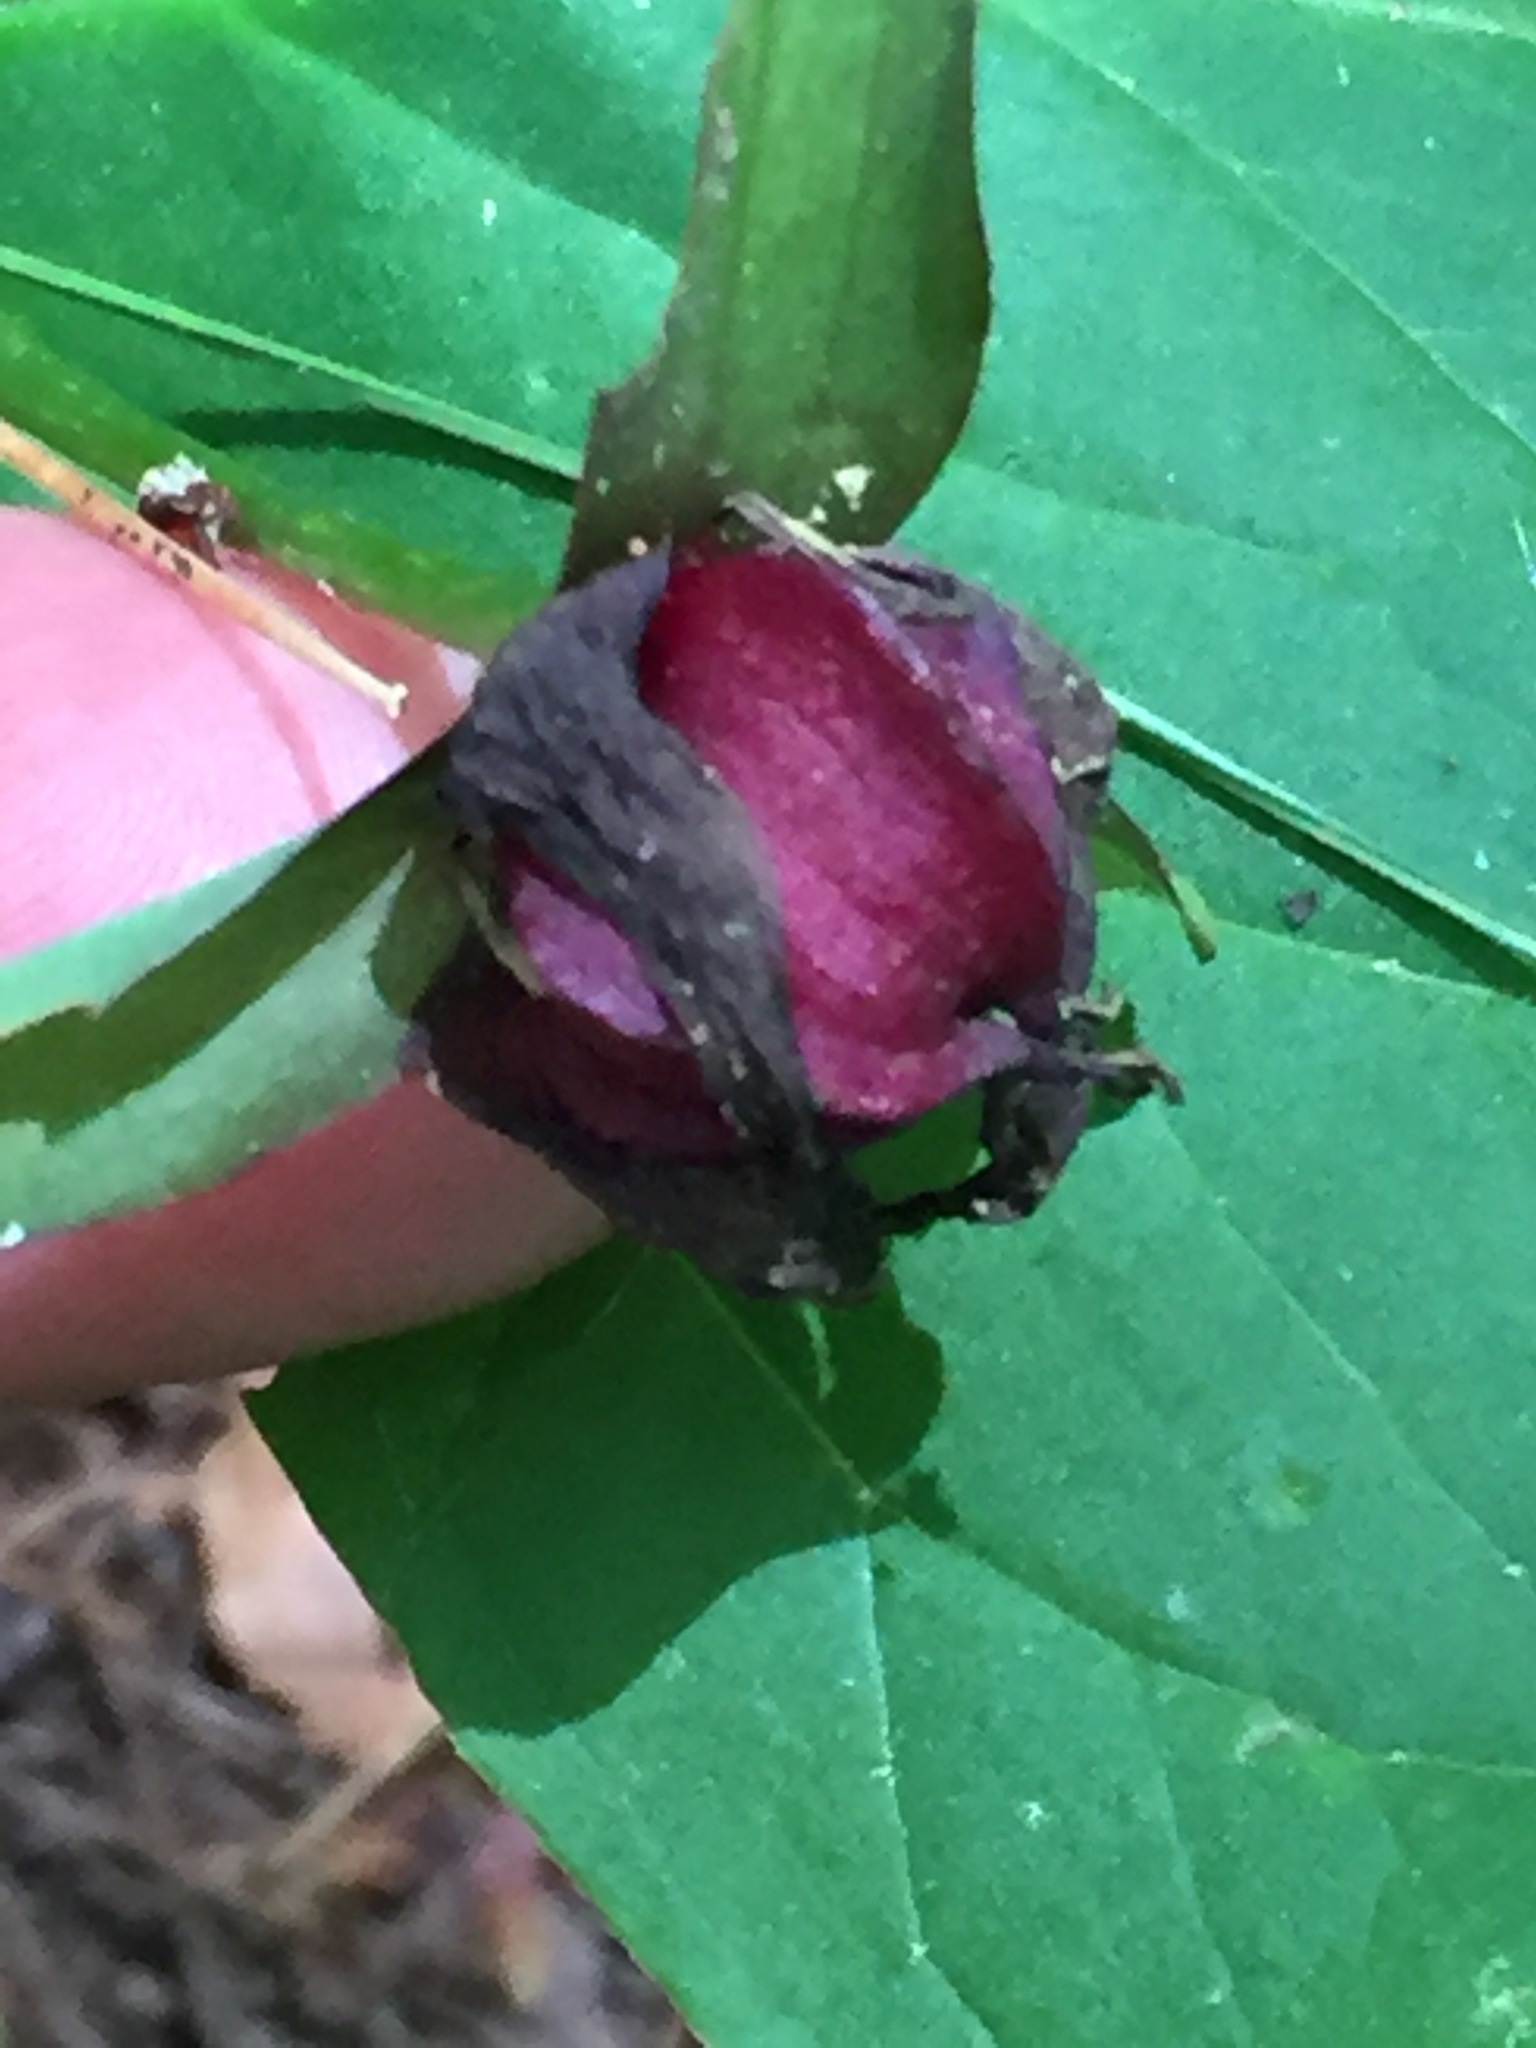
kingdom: Plantae
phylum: Tracheophyta
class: Liliopsida
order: Liliales
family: Melanthiaceae
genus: Trillium
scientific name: Trillium erectum
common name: Purple trillium
